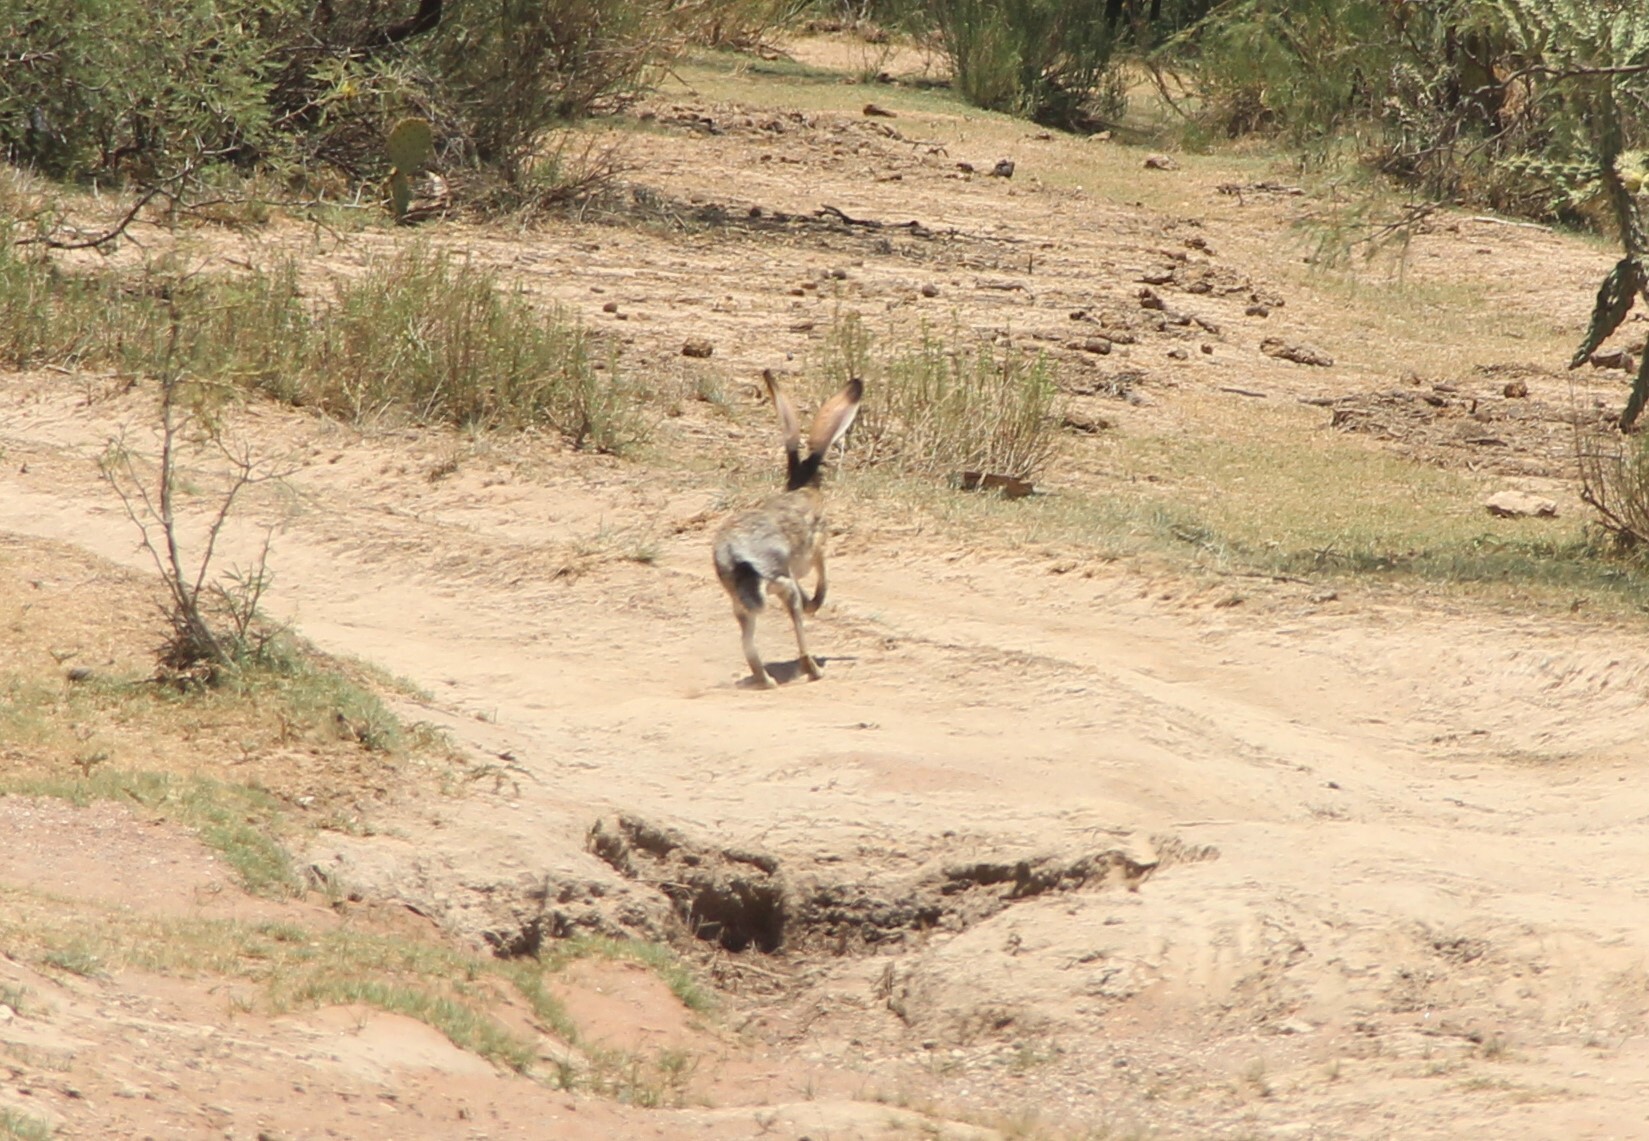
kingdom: Animalia
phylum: Chordata
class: Mammalia
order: Lagomorpha
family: Leporidae
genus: Lepus
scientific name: Lepus californicus
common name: Black-tailed jackrabbit
